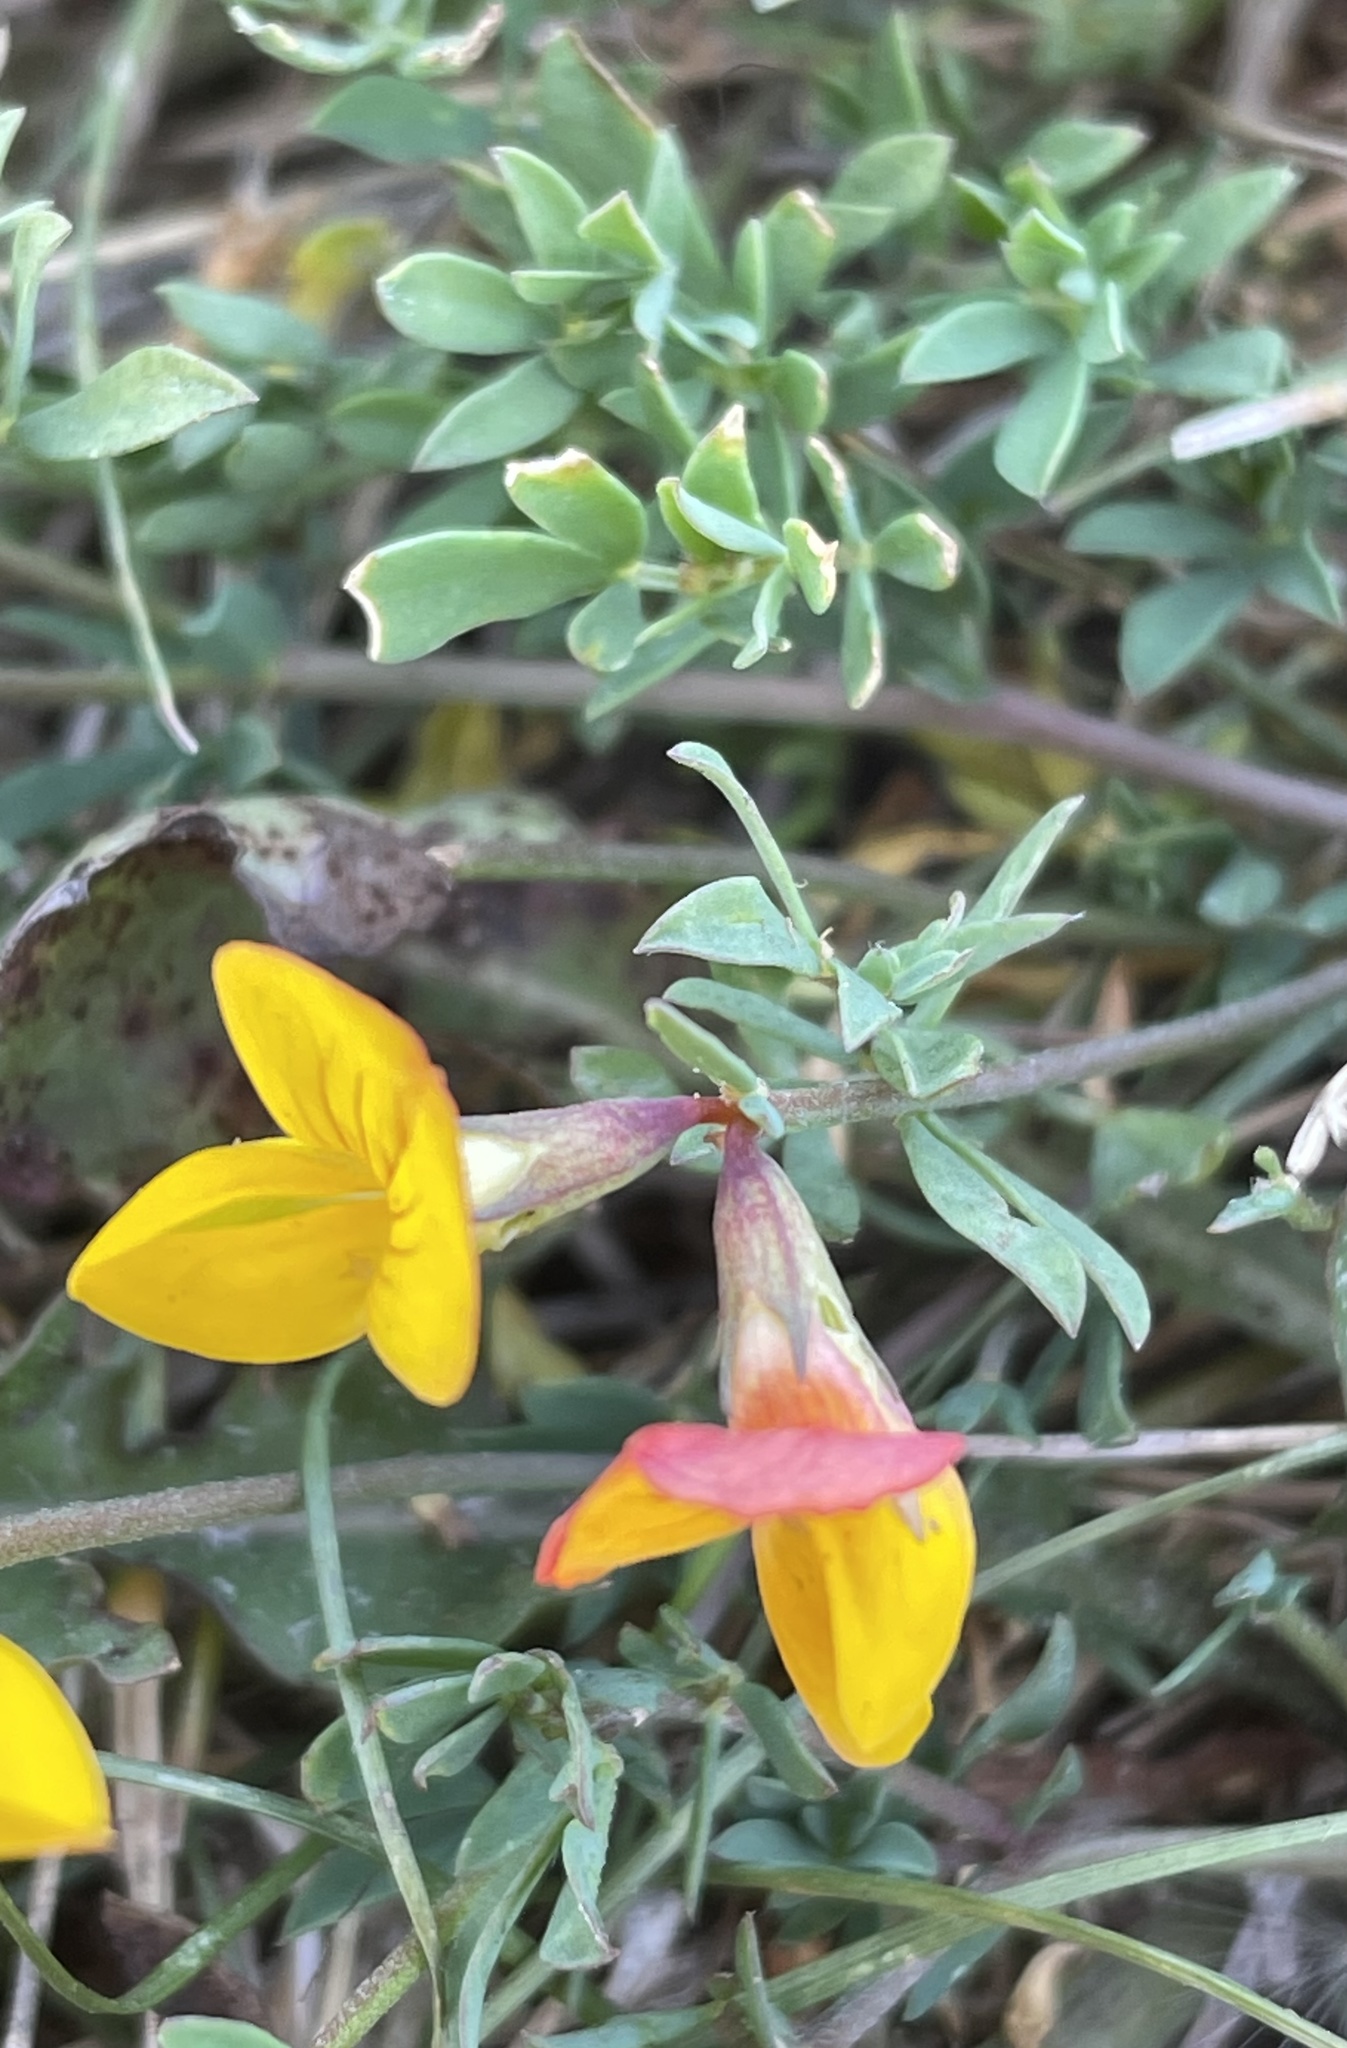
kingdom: Plantae
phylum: Tracheophyta
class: Magnoliopsida
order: Fabales
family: Fabaceae
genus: Lotus
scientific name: Lotus corniculatus
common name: Common bird's-foot-trefoil
